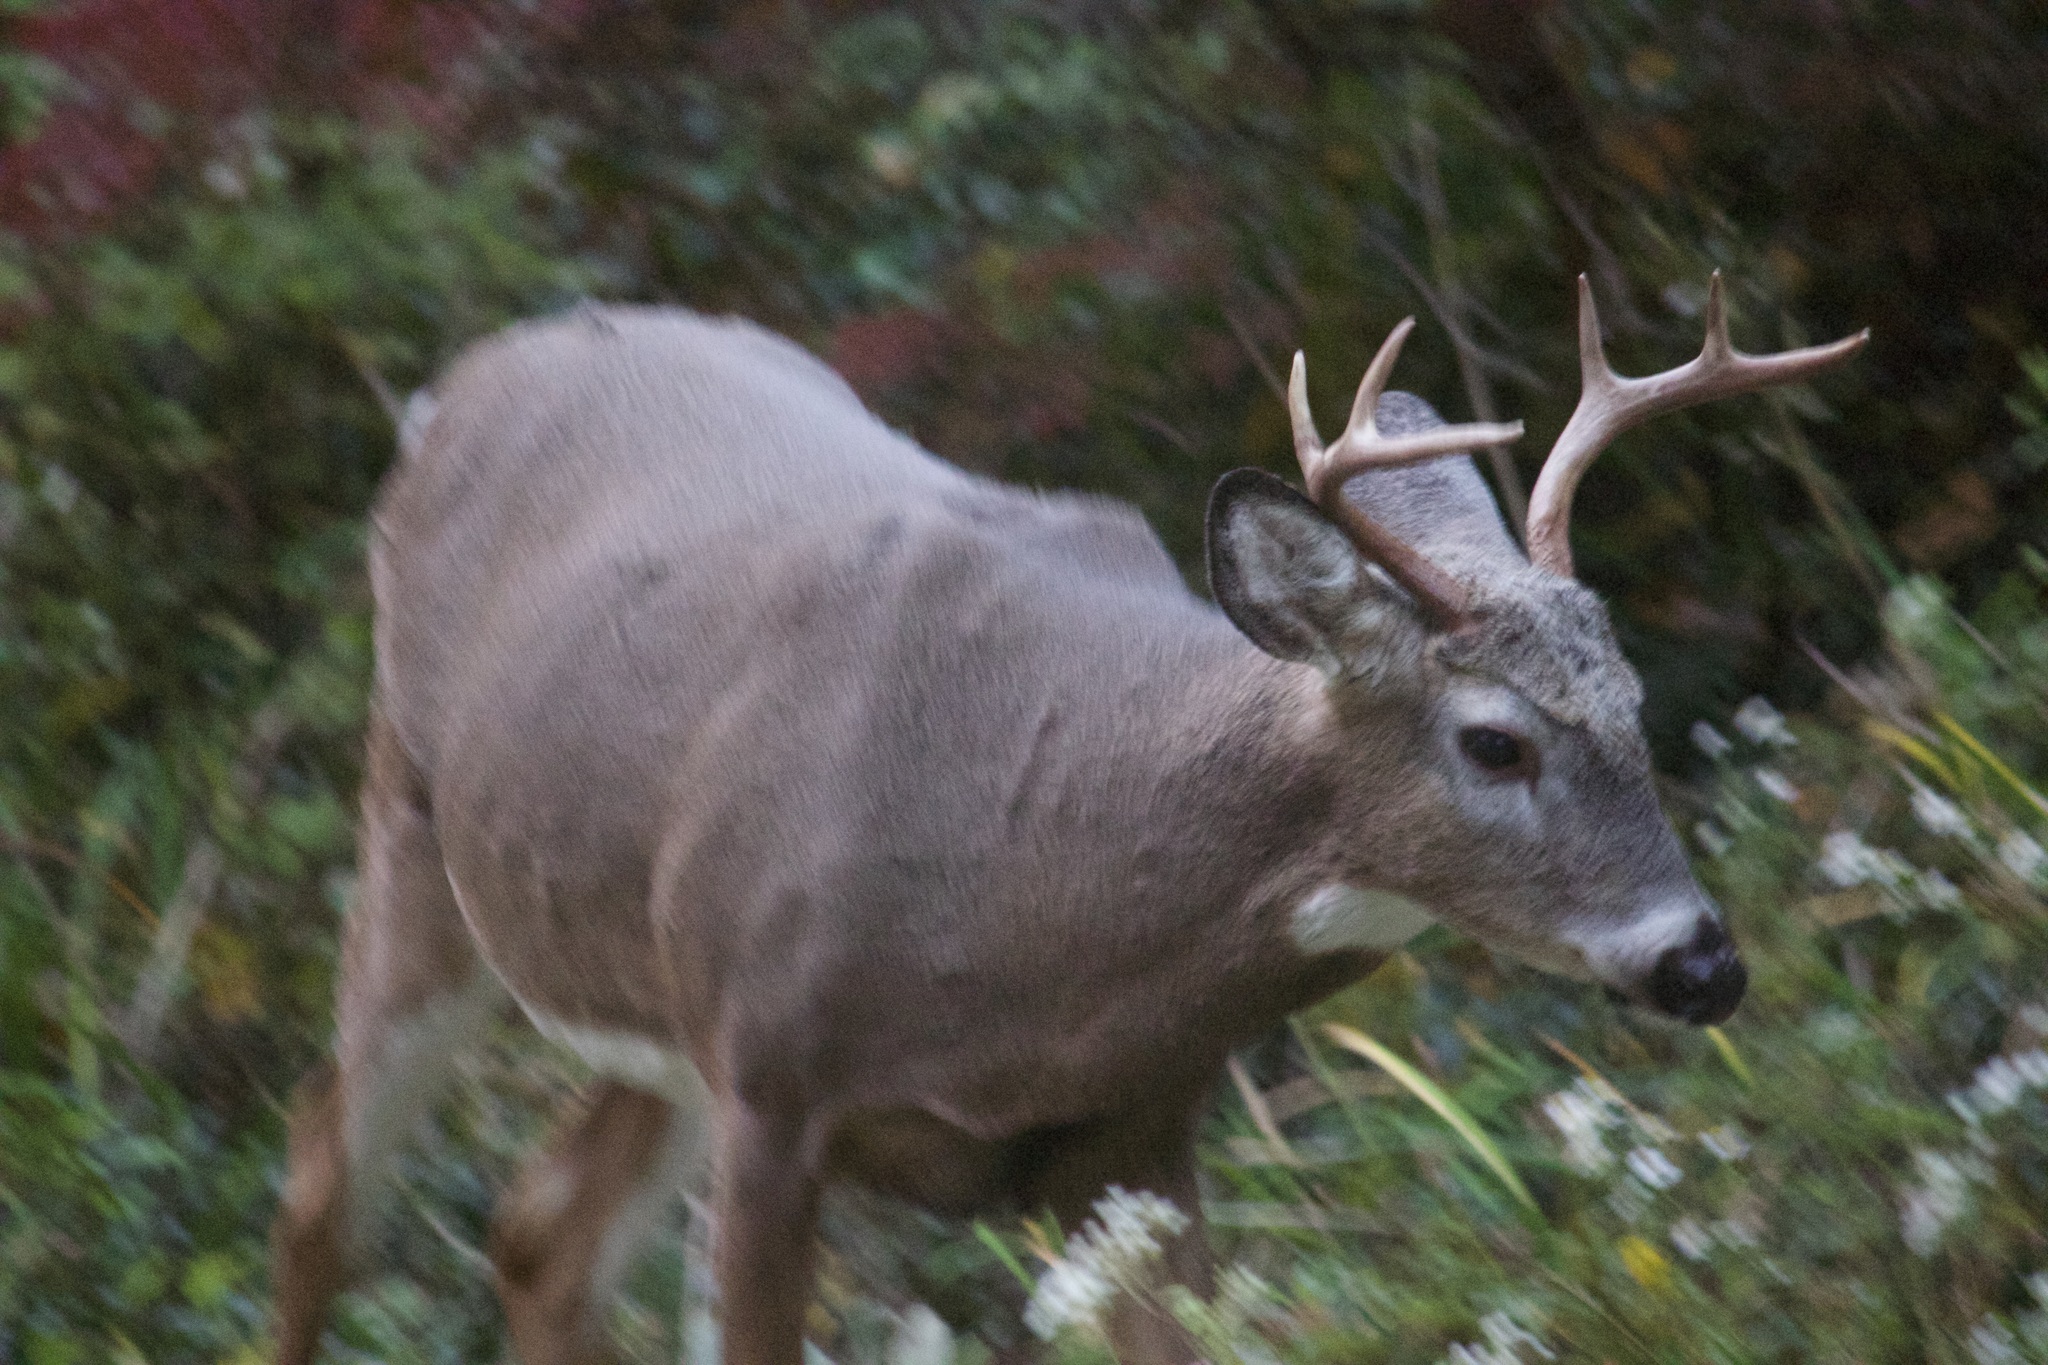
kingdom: Animalia
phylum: Chordata
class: Mammalia
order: Artiodactyla
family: Cervidae
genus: Odocoileus
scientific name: Odocoileus virginianus
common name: White-tailed deer
